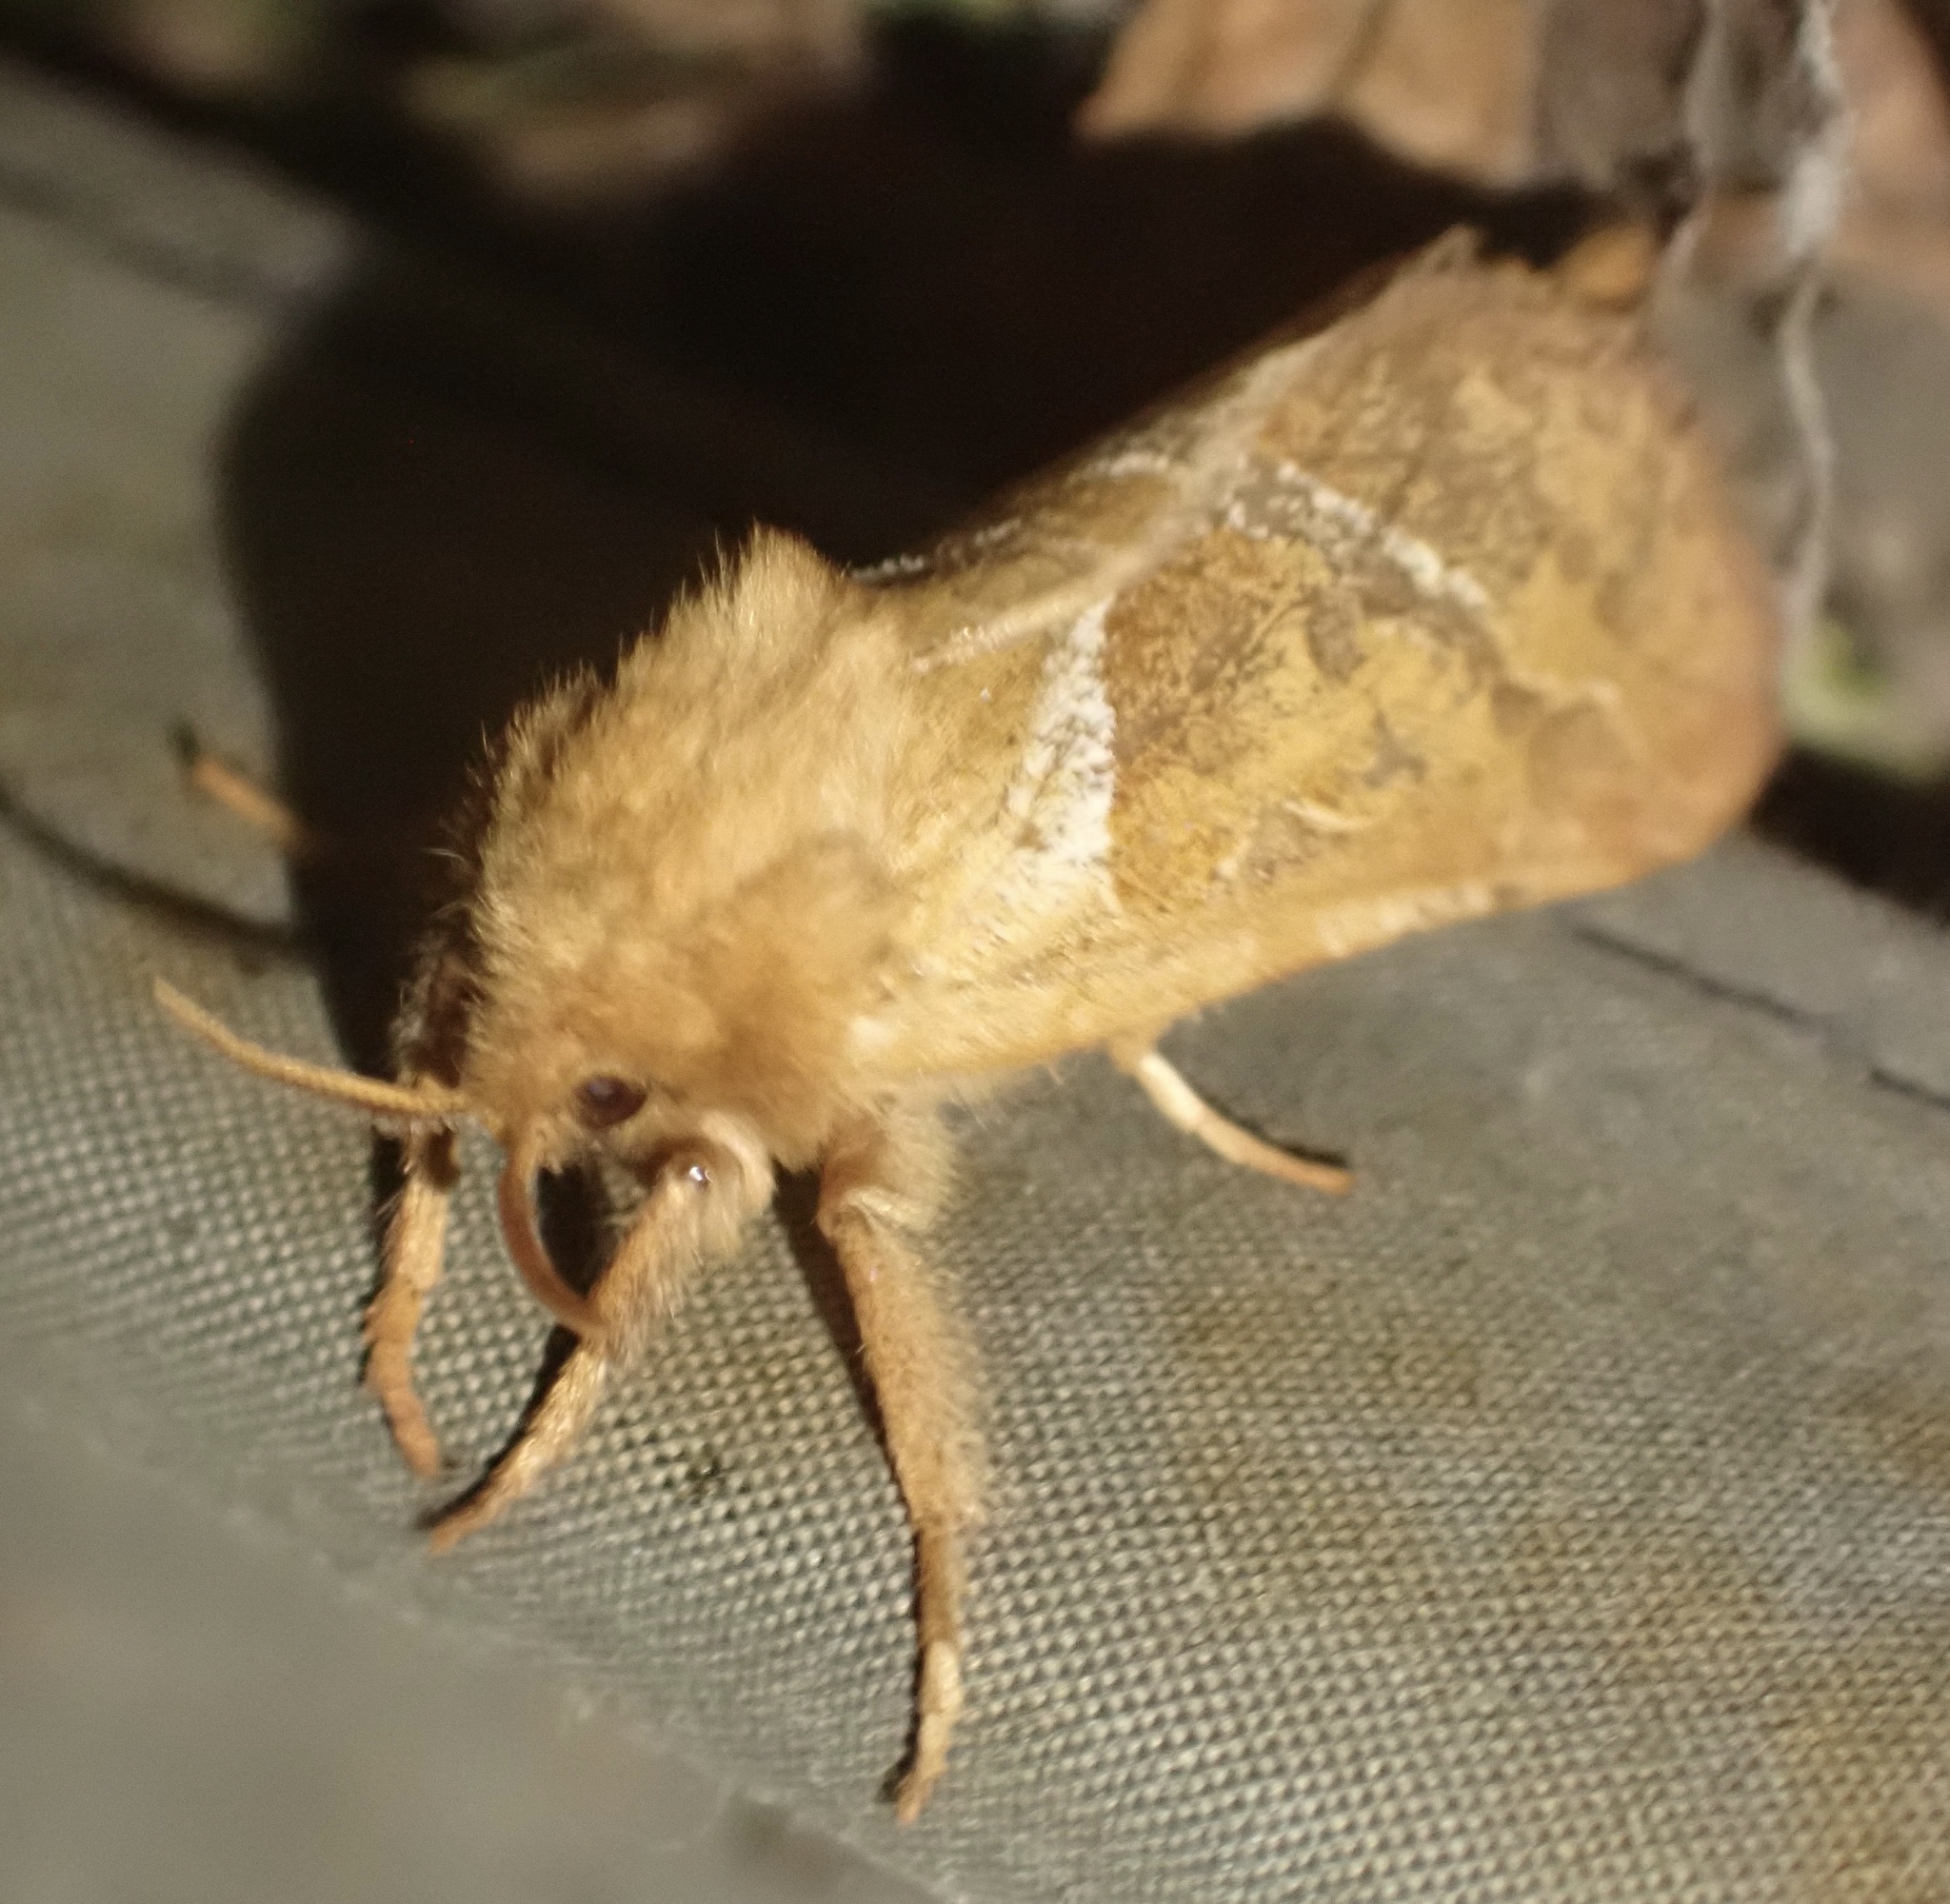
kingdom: Animalia
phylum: Arthropoda
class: Insecta
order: Lepidoptera
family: Hepialidae
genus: Triodia
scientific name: Triodia sylvina
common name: Orange swift
